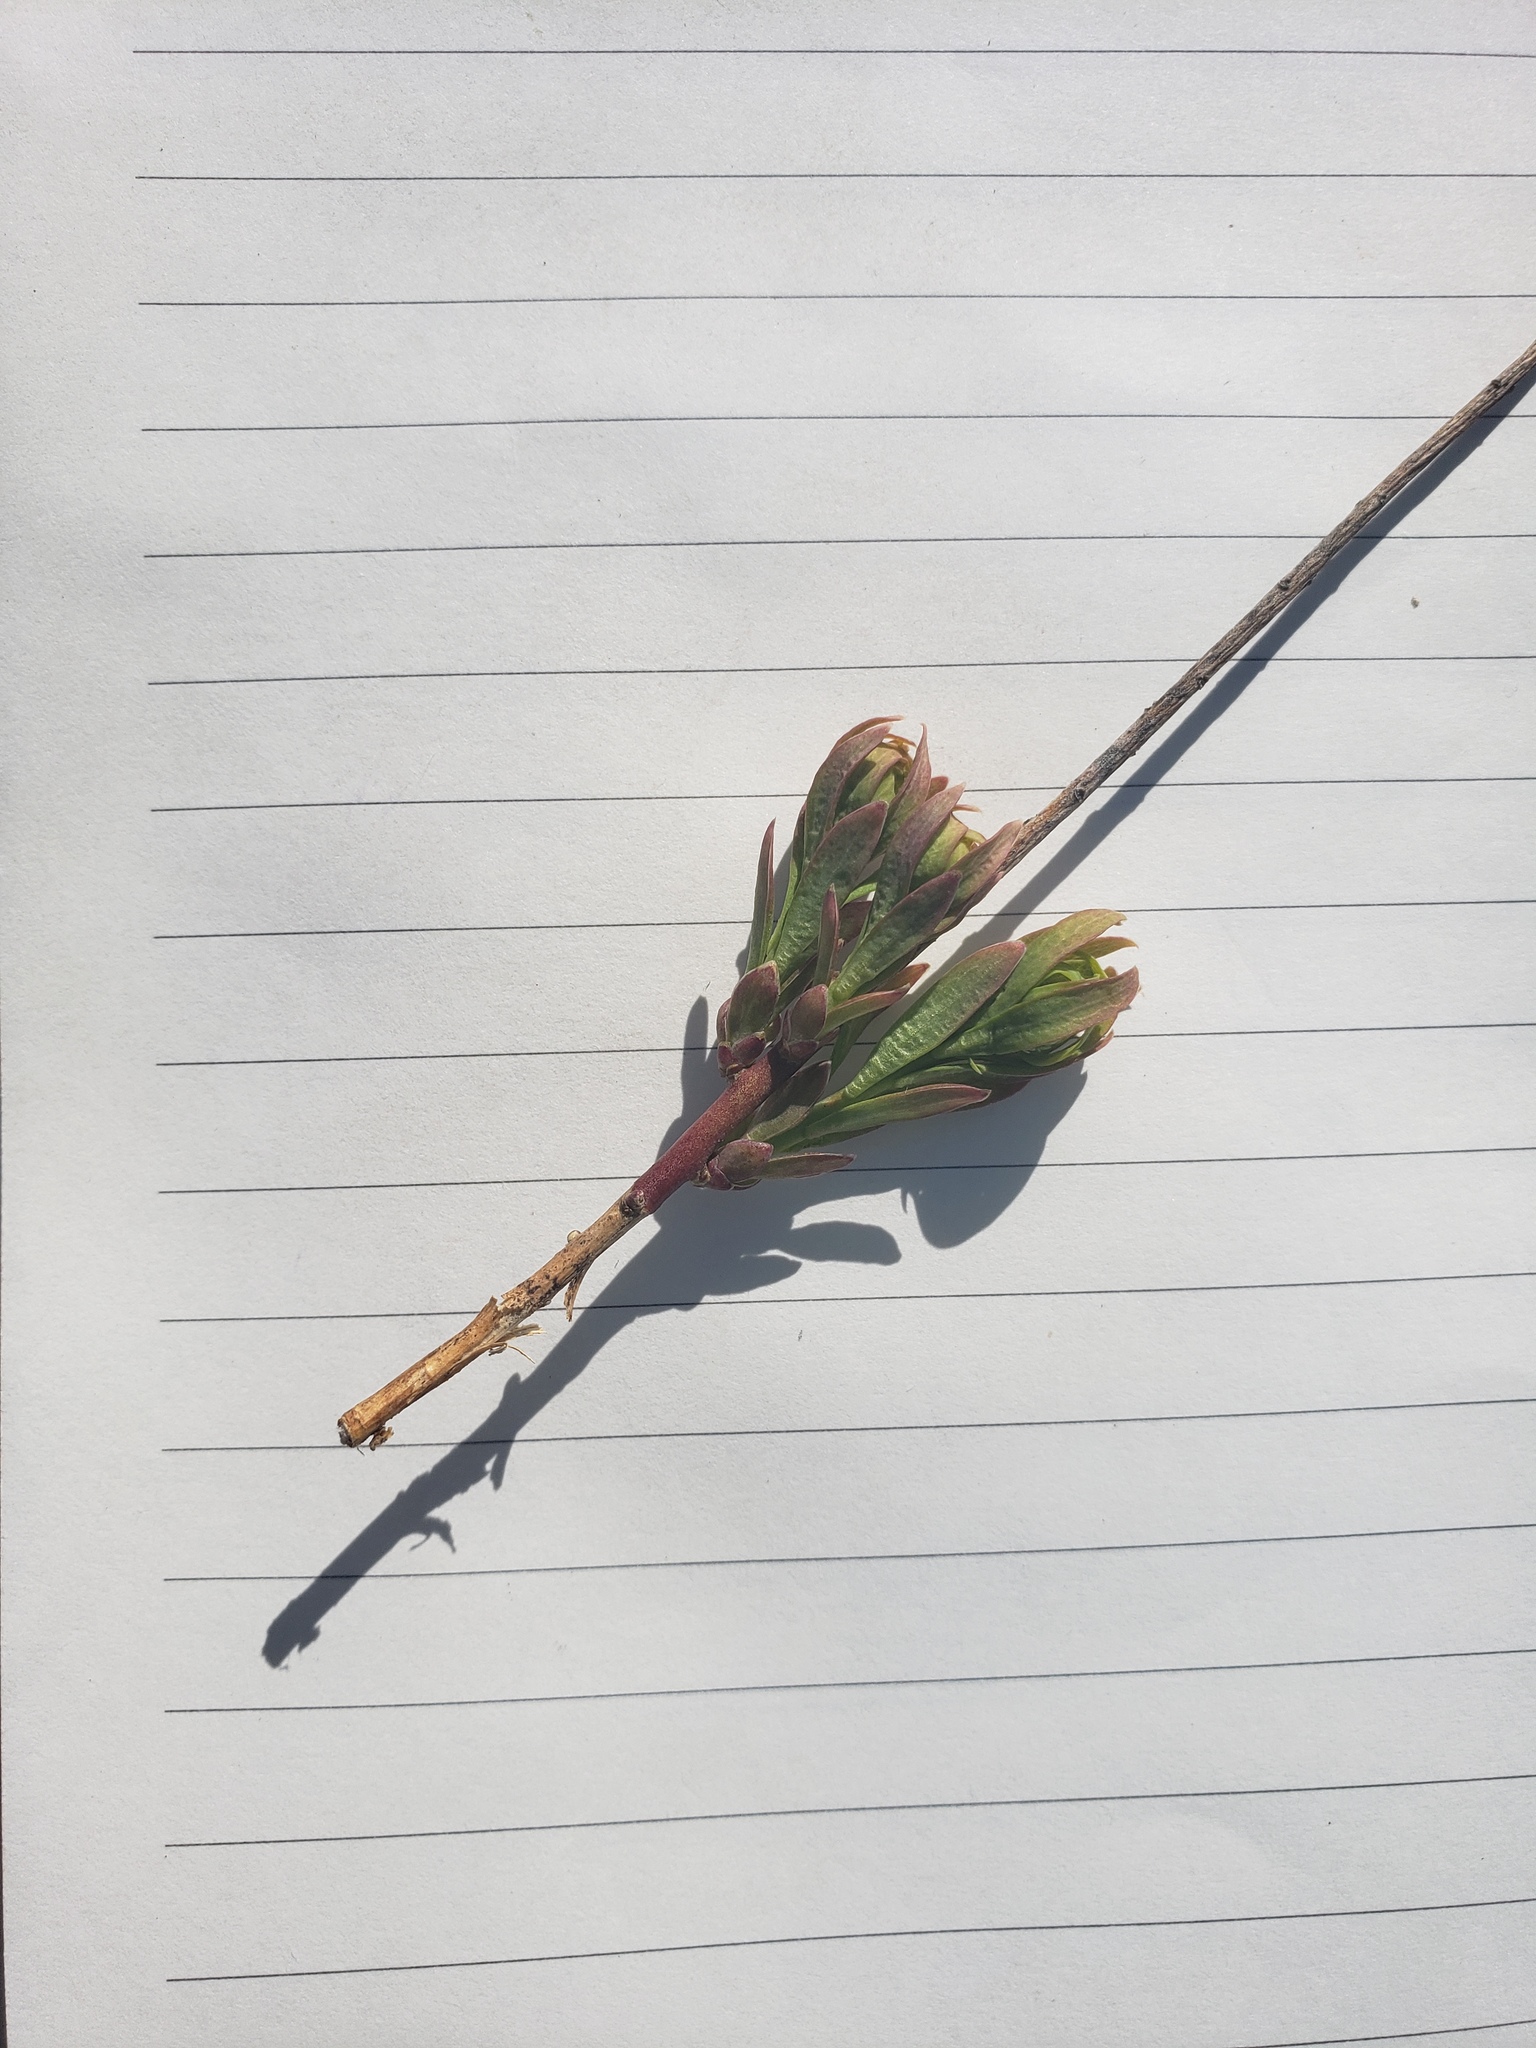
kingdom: Plantae
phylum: Tracheophyta
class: Magnoliopsida
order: Santalales
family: Comandraceae
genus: Comandra
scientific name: Comandra umbellata
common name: Bastard toadflax
